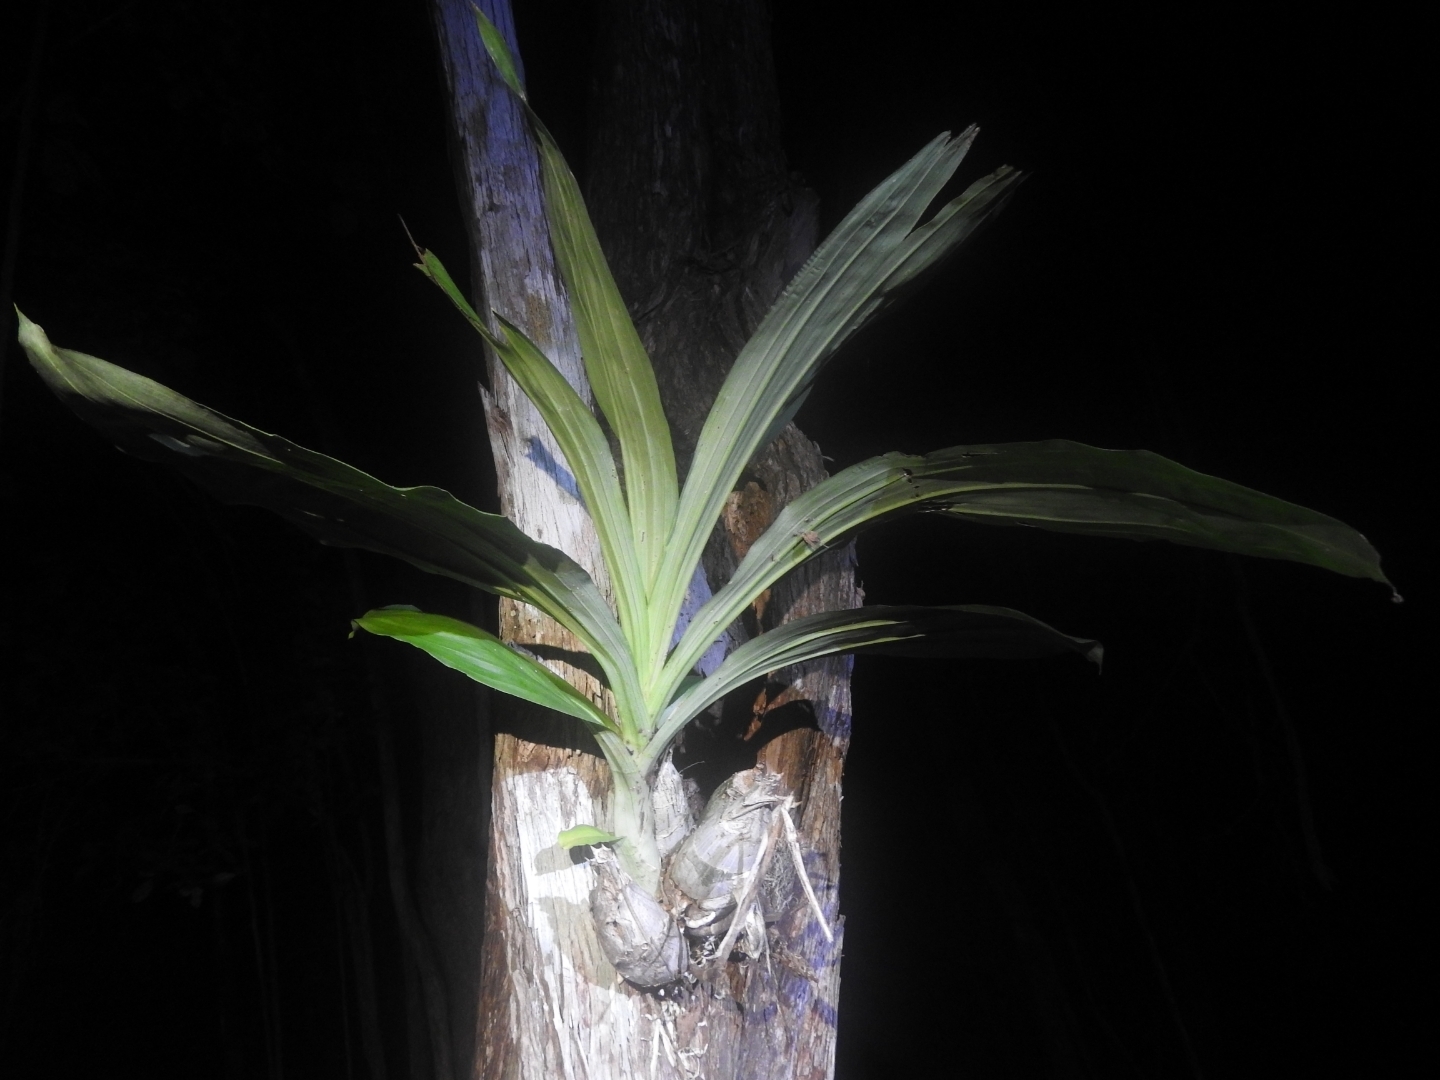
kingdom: Plantae
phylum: Tracheophyta
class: Liliopsida
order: Asparagales
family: Orchidaceae
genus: Catasetum
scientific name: Catasetum integerrimum
